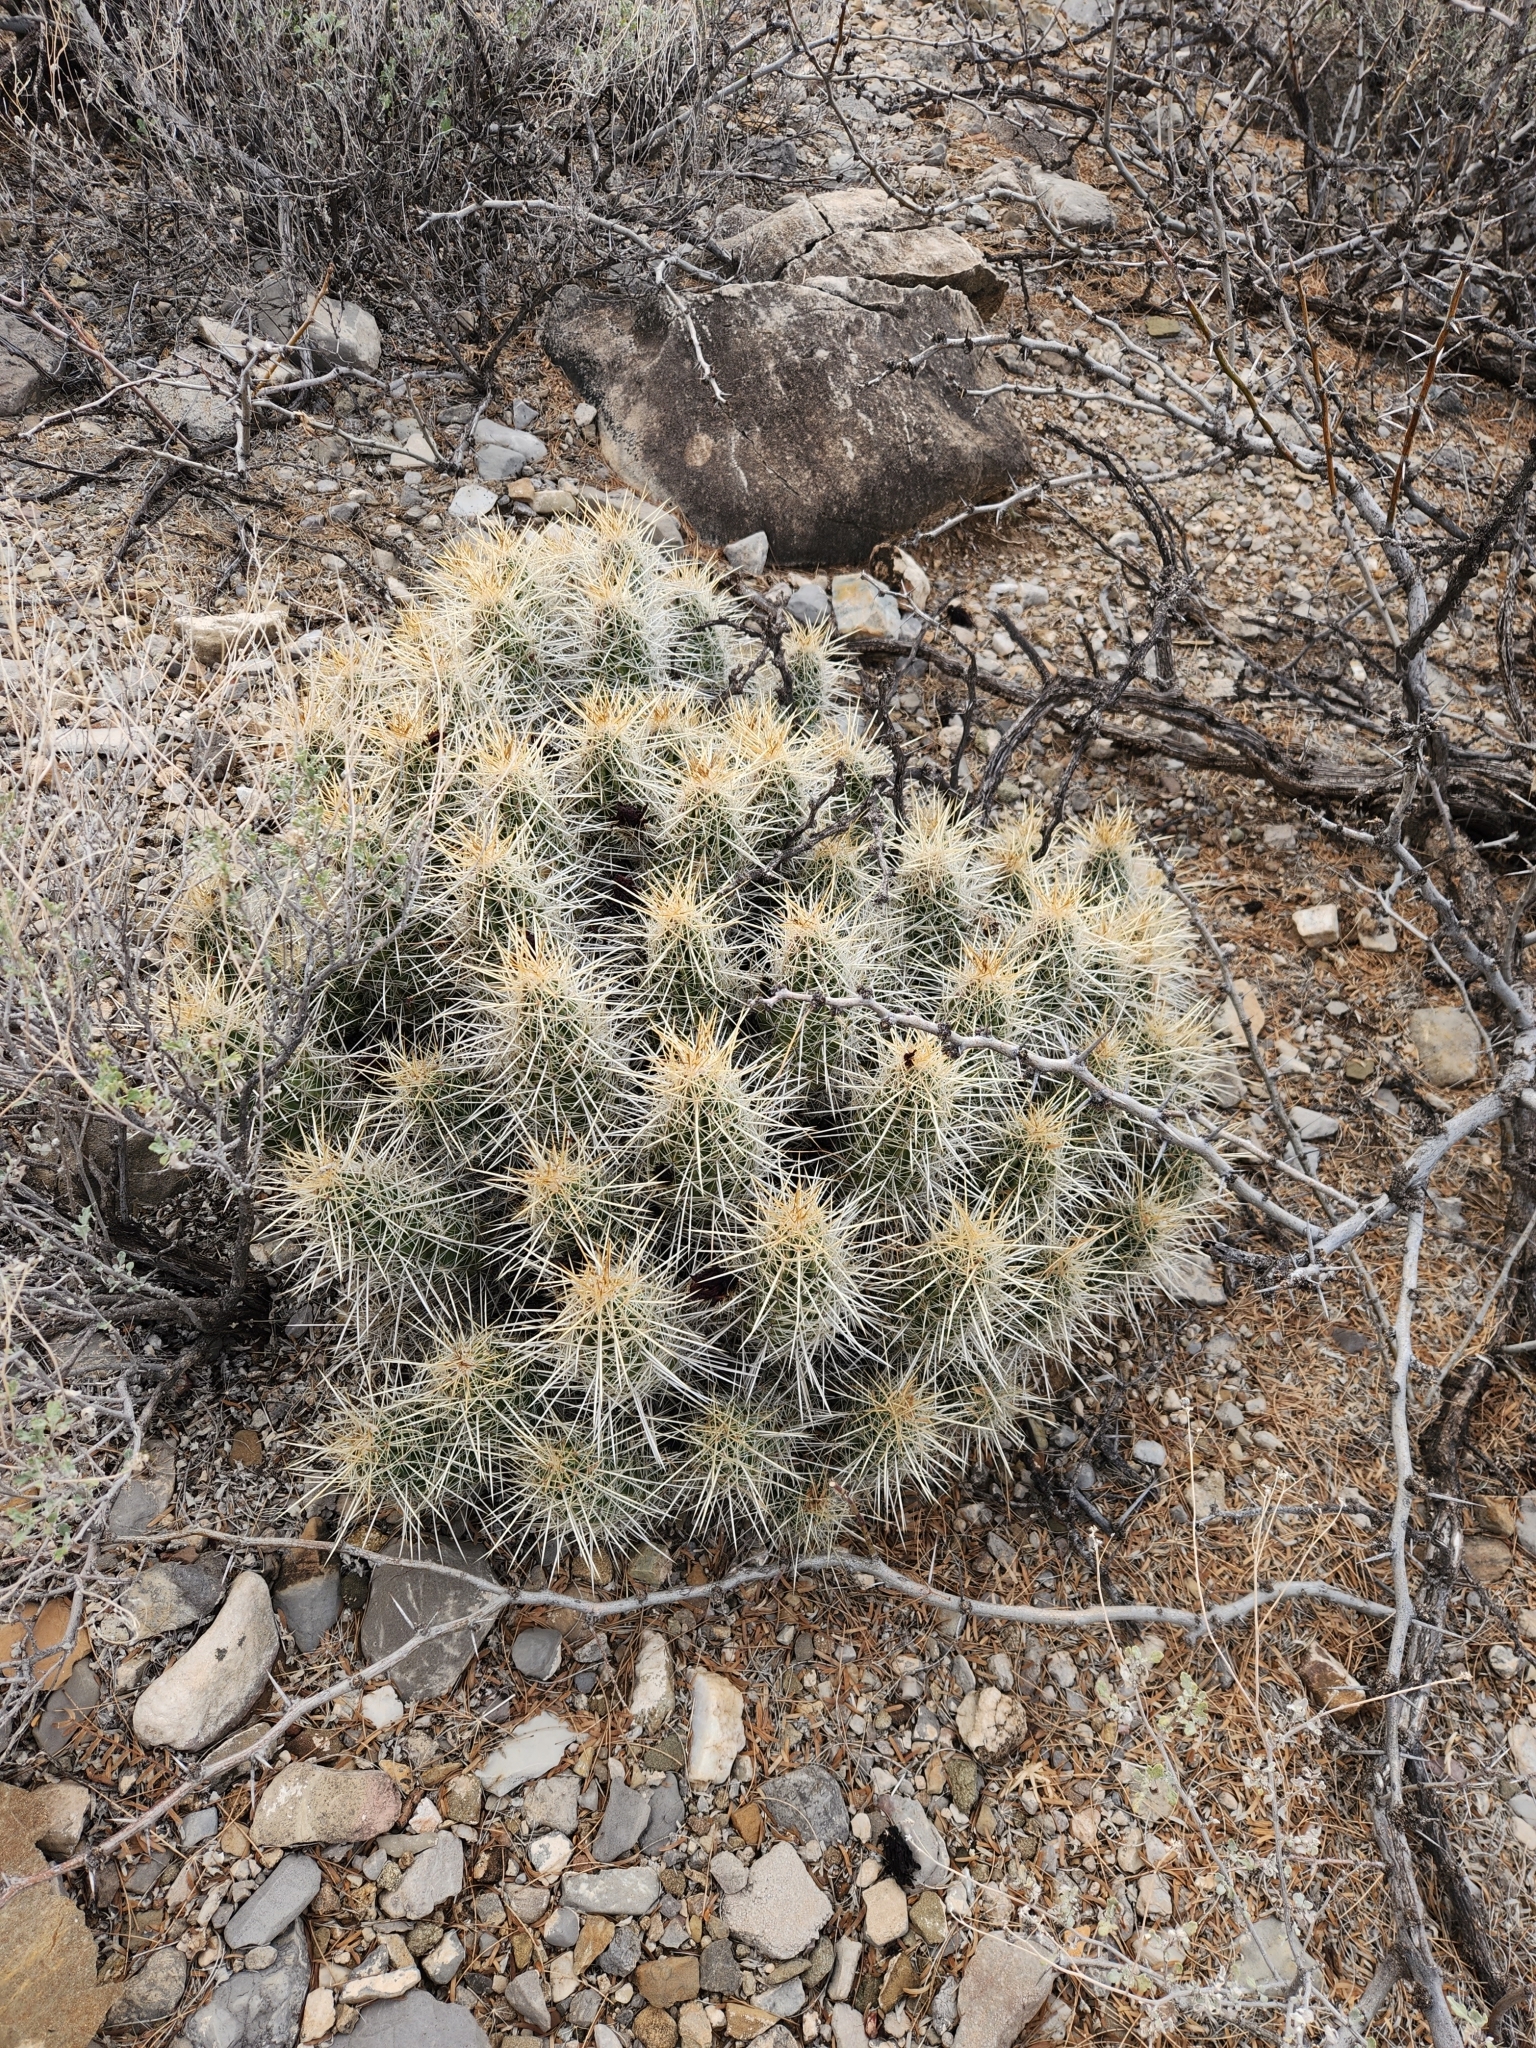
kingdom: Plantae
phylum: Tracheophyta
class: Magnoliopsida
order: Caryophyllales
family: Cactaceae
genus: Echinocereus
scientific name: Echinocereus stramineus
